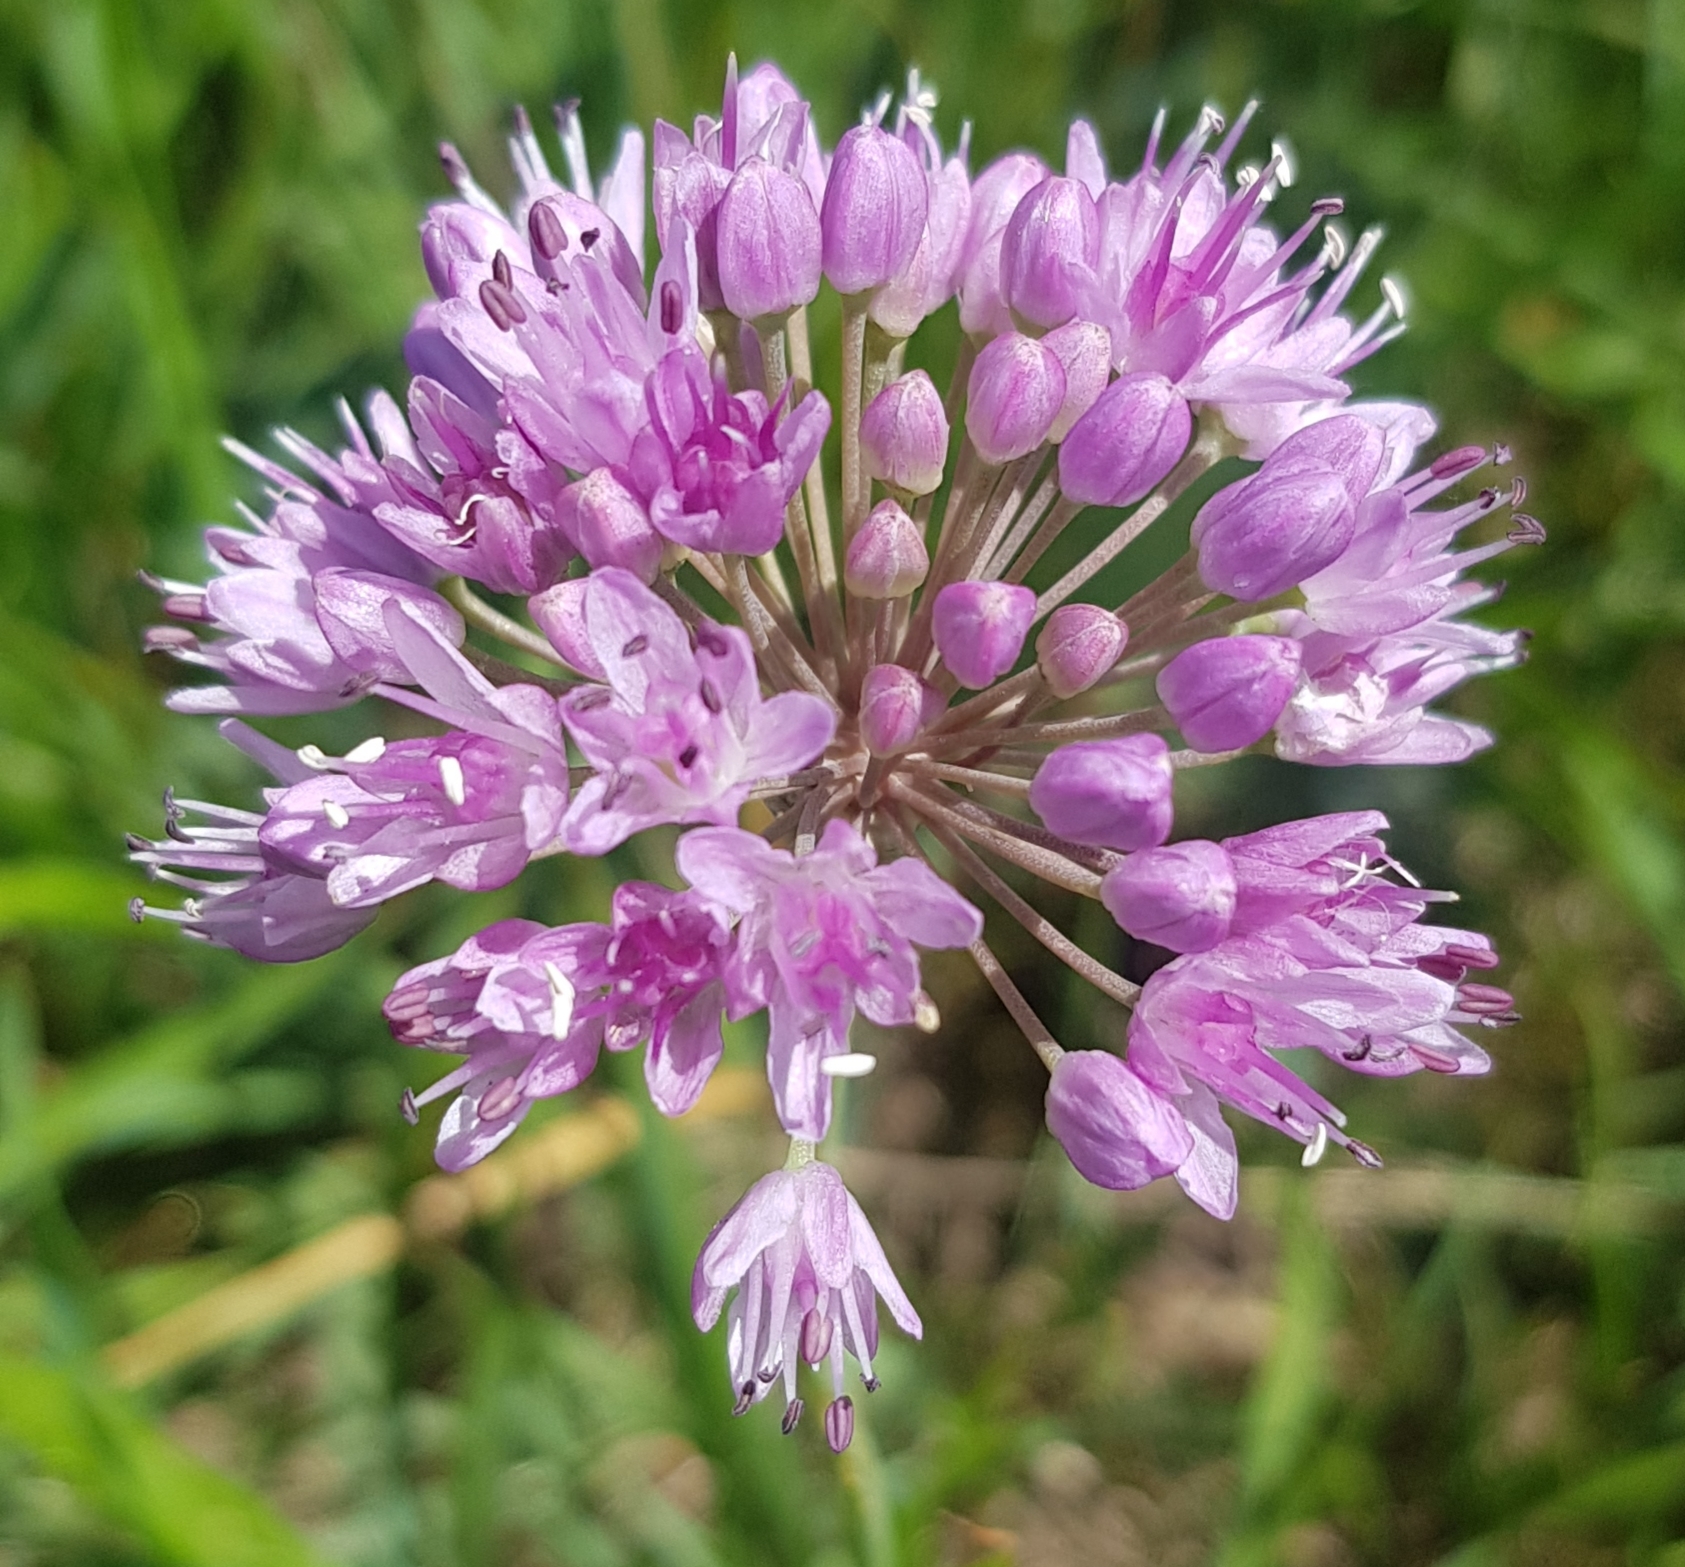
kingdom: Plantae
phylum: Tracheophyta
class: Liliopsida
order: Asparagales
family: Amaryllidaceae
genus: Allium
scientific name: Allium senescens
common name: German garlic
